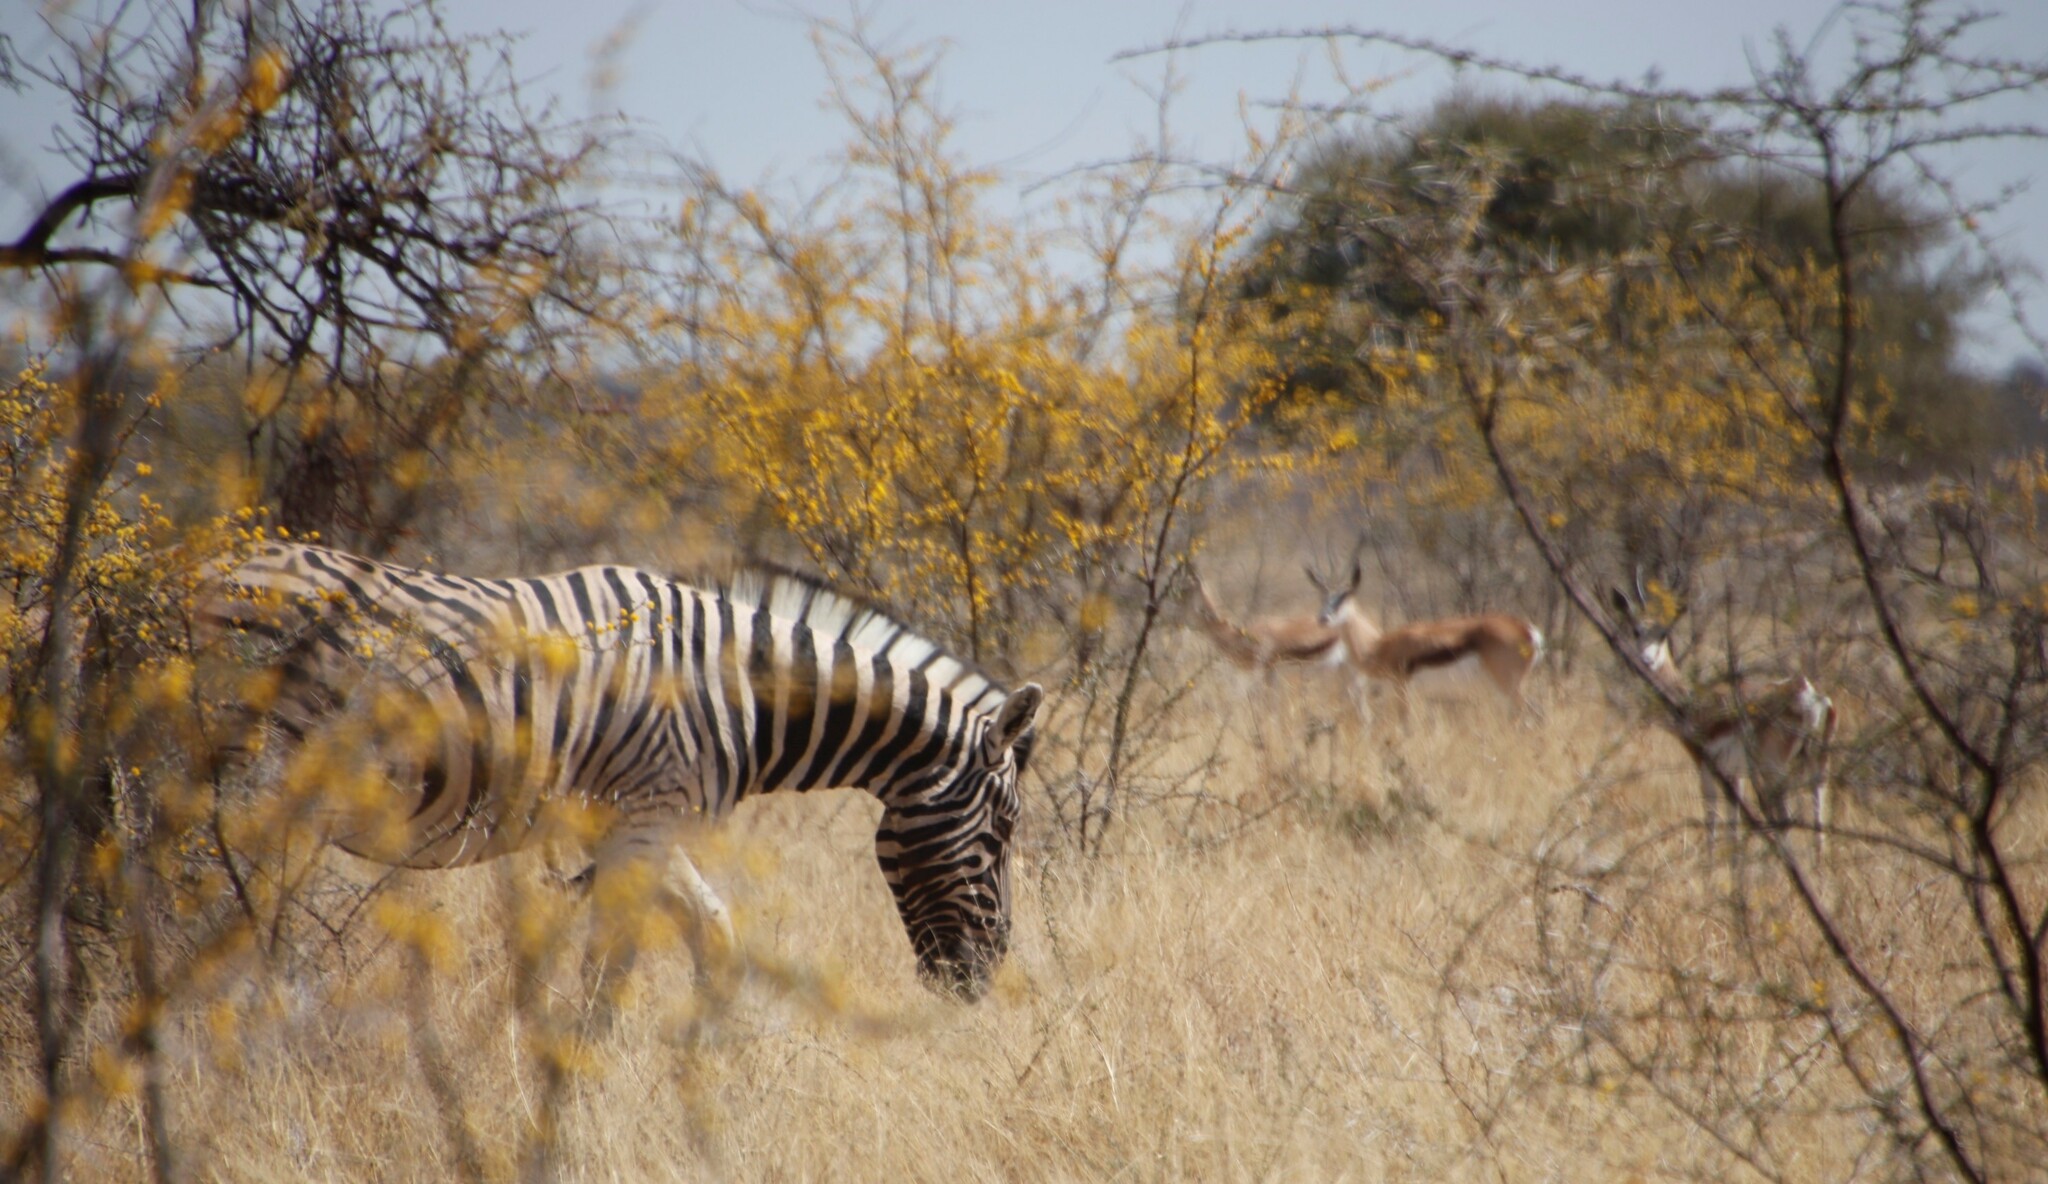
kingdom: Animalia
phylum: Chordata
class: Mammalia
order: Perissodactyla
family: Equidae
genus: Equus
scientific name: Equus quagga
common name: Plains zebra
